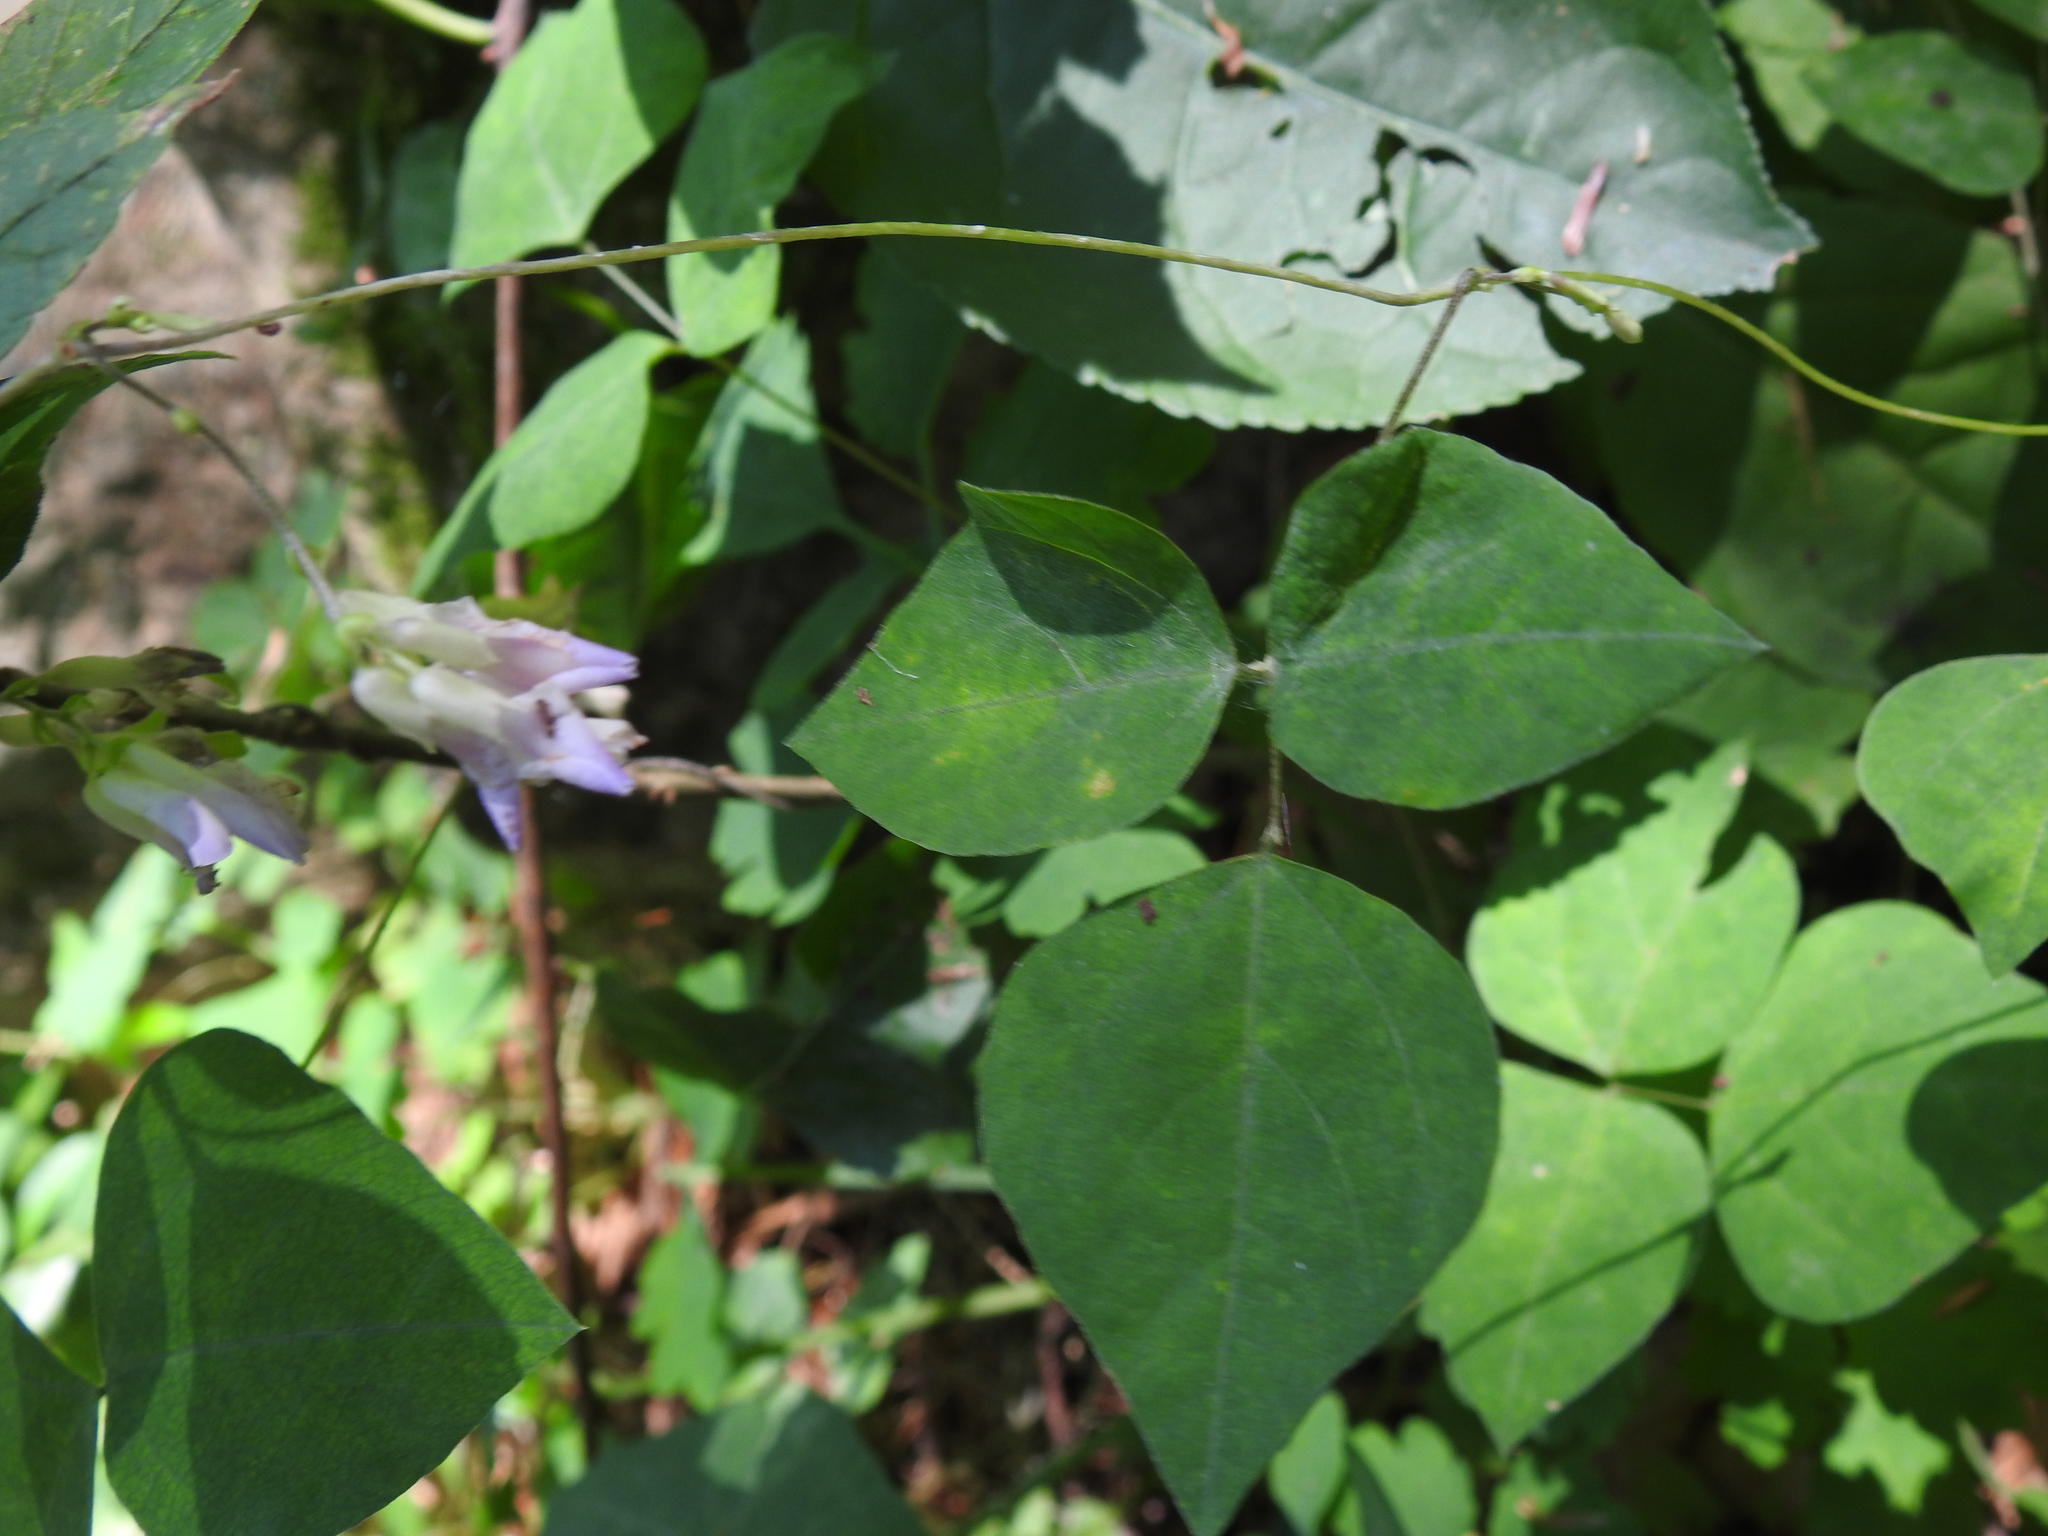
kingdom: Plantae
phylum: Tracheophyta
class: Magnoliopsida
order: Fabales
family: Fabaceae
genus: Amphicarpaea
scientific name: Amphicarpaea bracteata
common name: American hog peanut
